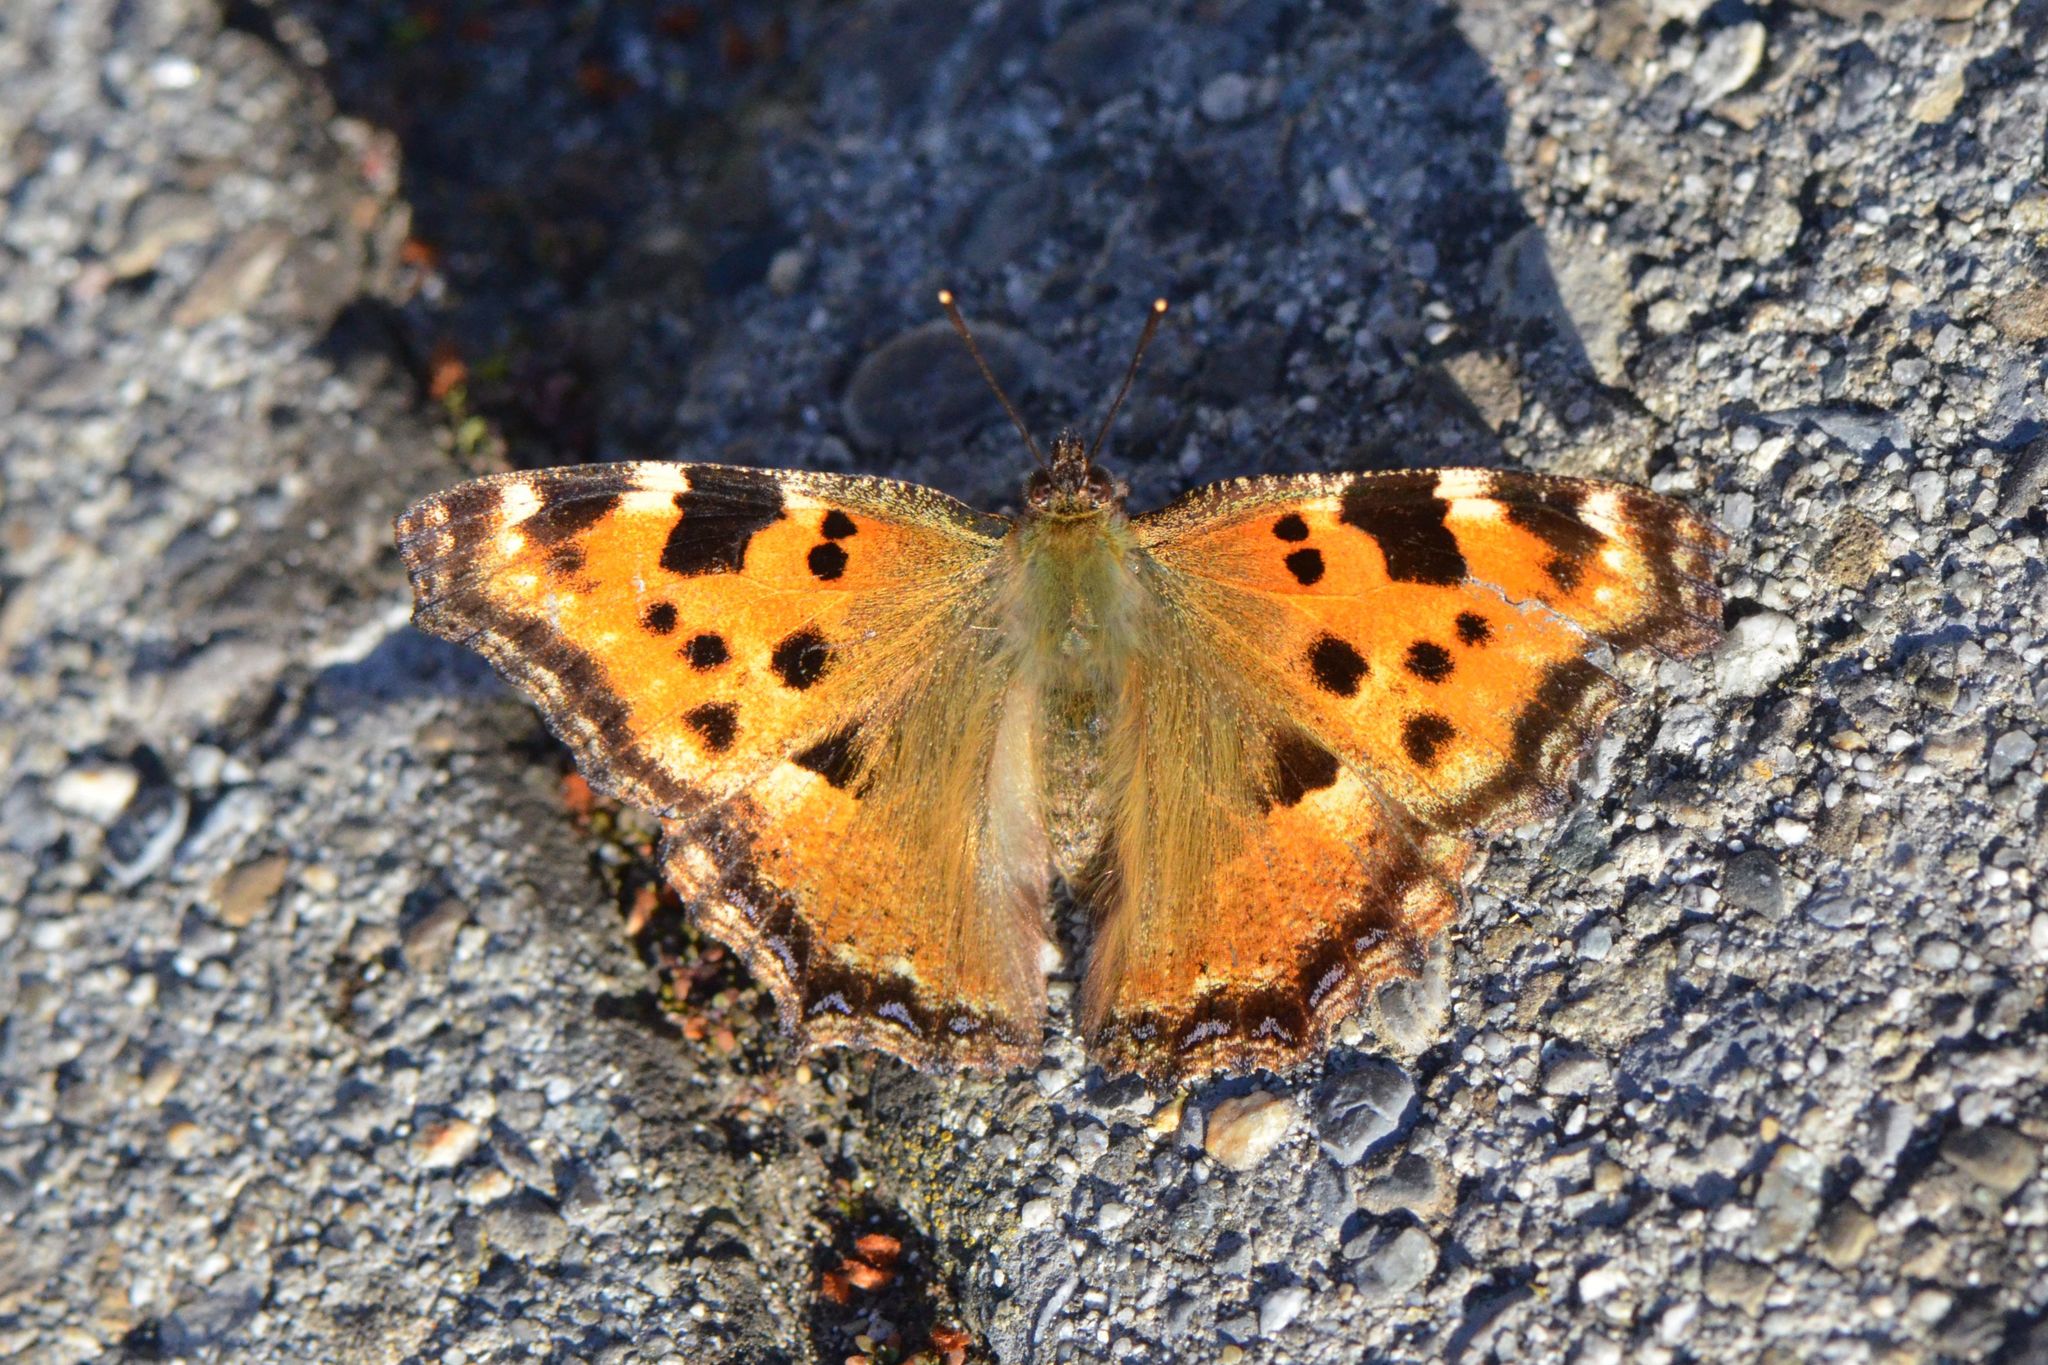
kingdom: Animalia
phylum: Arthropoda
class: Insecta
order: Lepidoptera
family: Nymphalidae
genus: Nymphalis
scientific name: Nymphalis polychloros
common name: Large tortoiseshell
